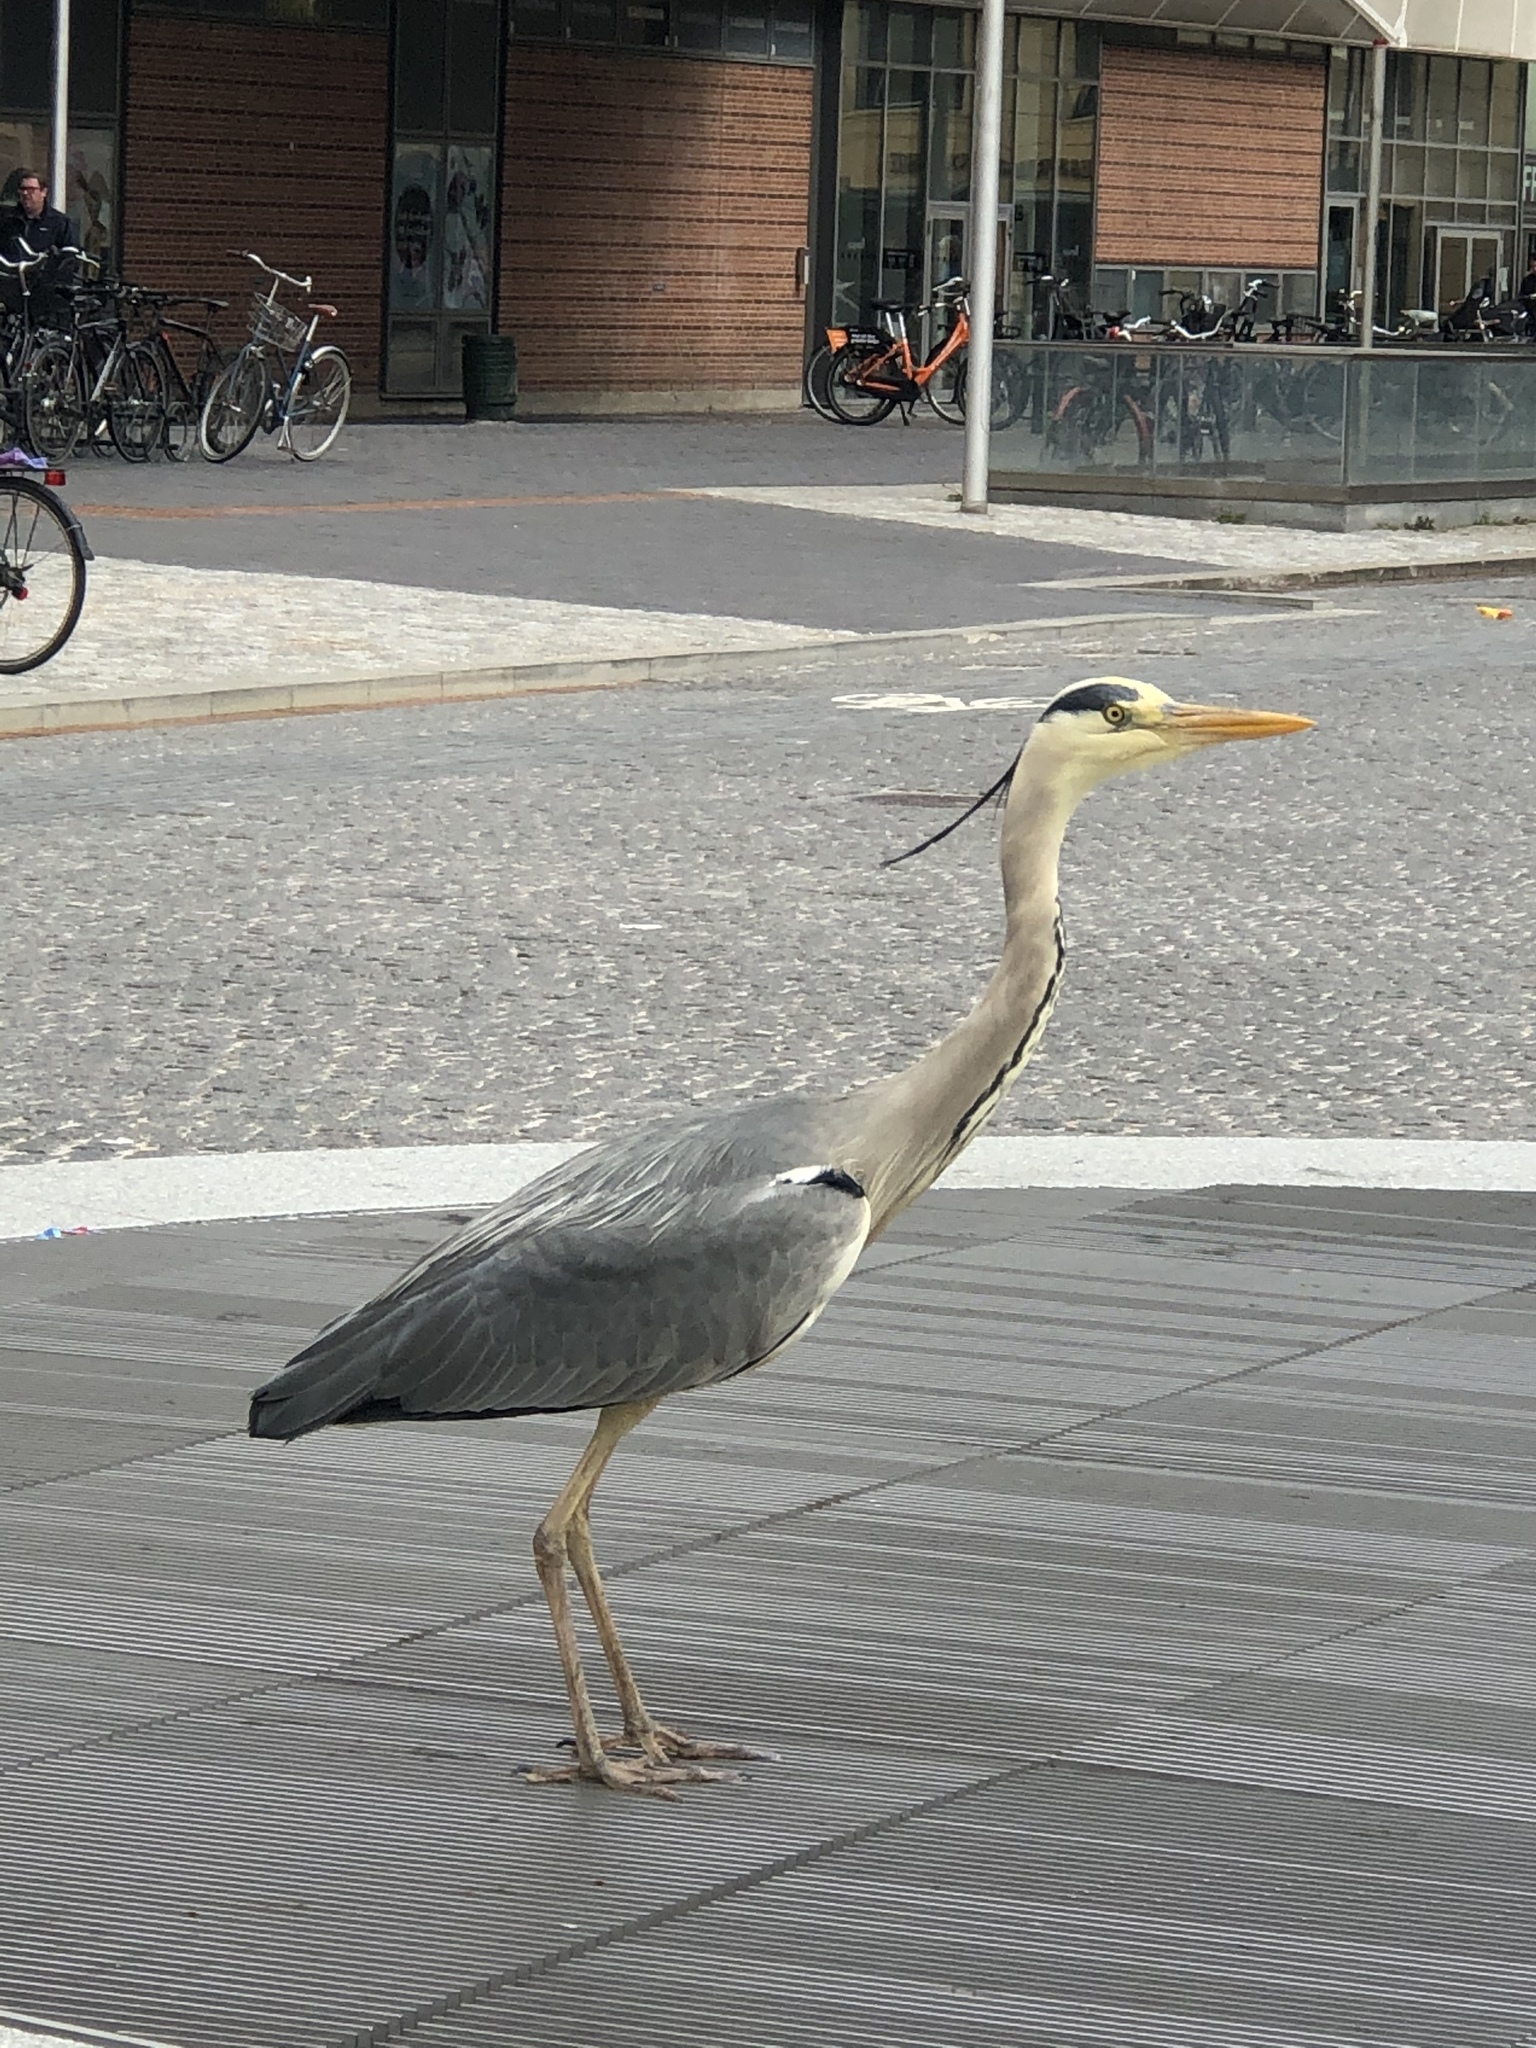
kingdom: Animalia
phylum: Chordata
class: Aves
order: Pelecaniformes
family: Ardeidae
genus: Ardea
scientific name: Ardea cinerea
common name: Grey heron
